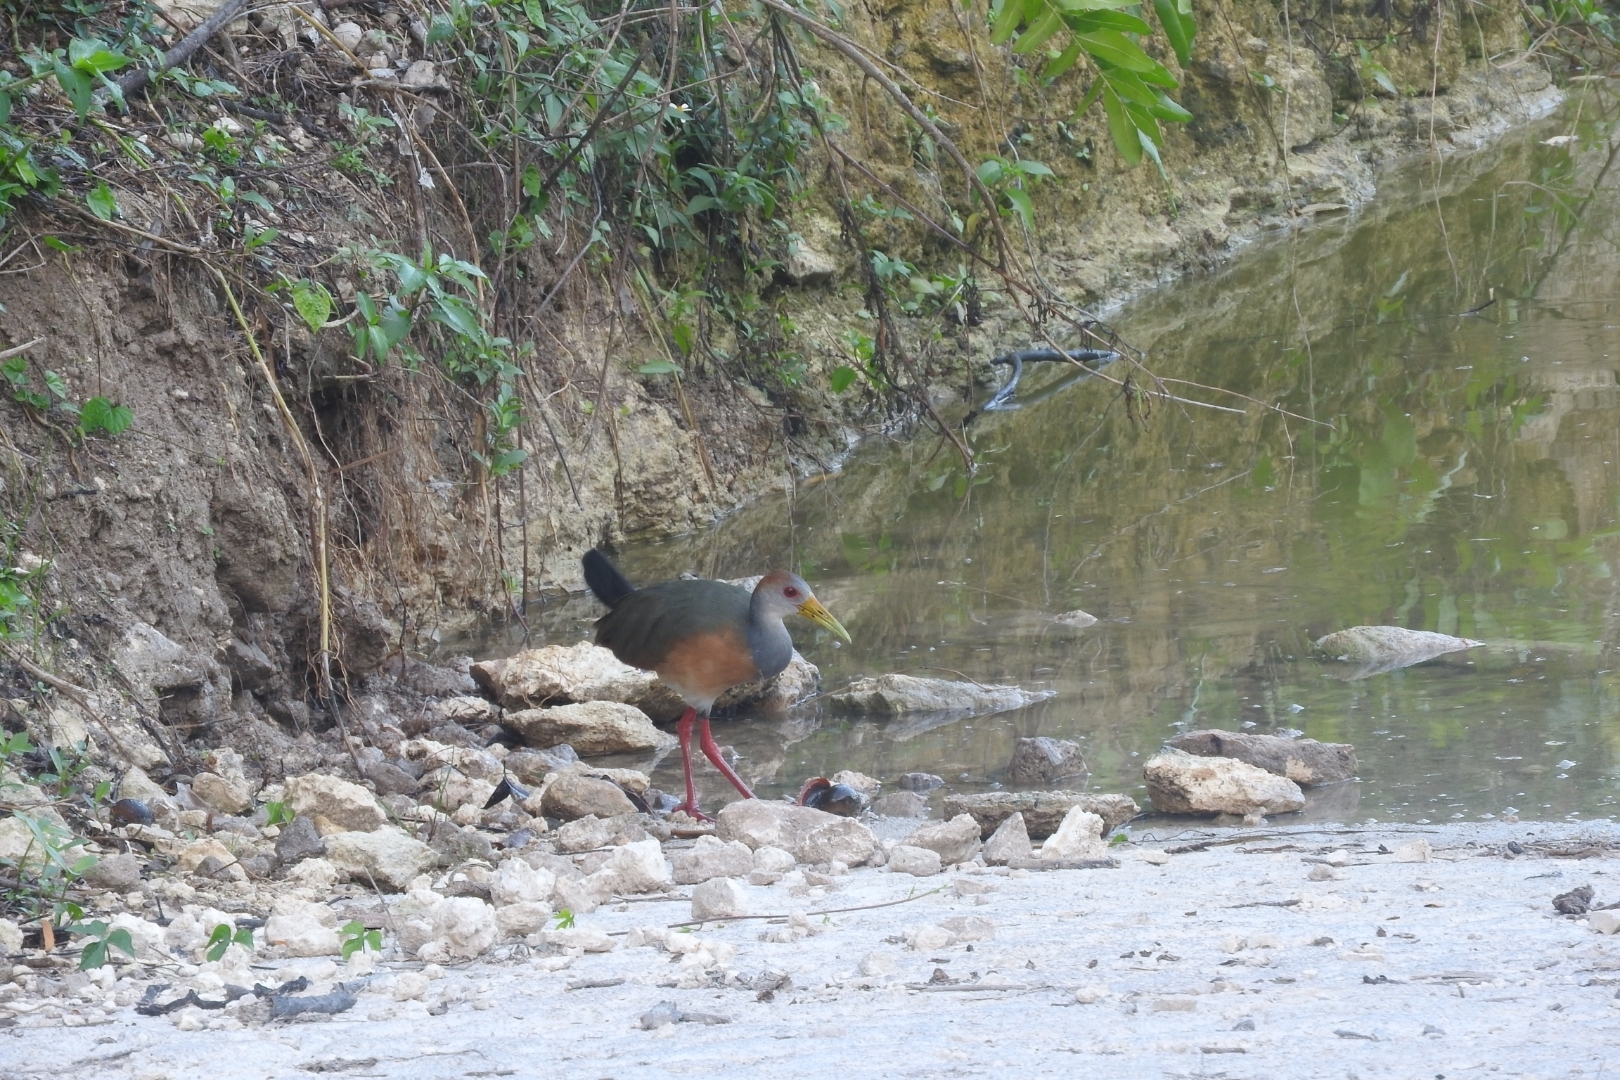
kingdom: Animalia
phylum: Chordata
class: Aves
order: Gruiformes
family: Rallidae
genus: Aramides
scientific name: Aramides albiventris
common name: Russet-naped wood-rail
